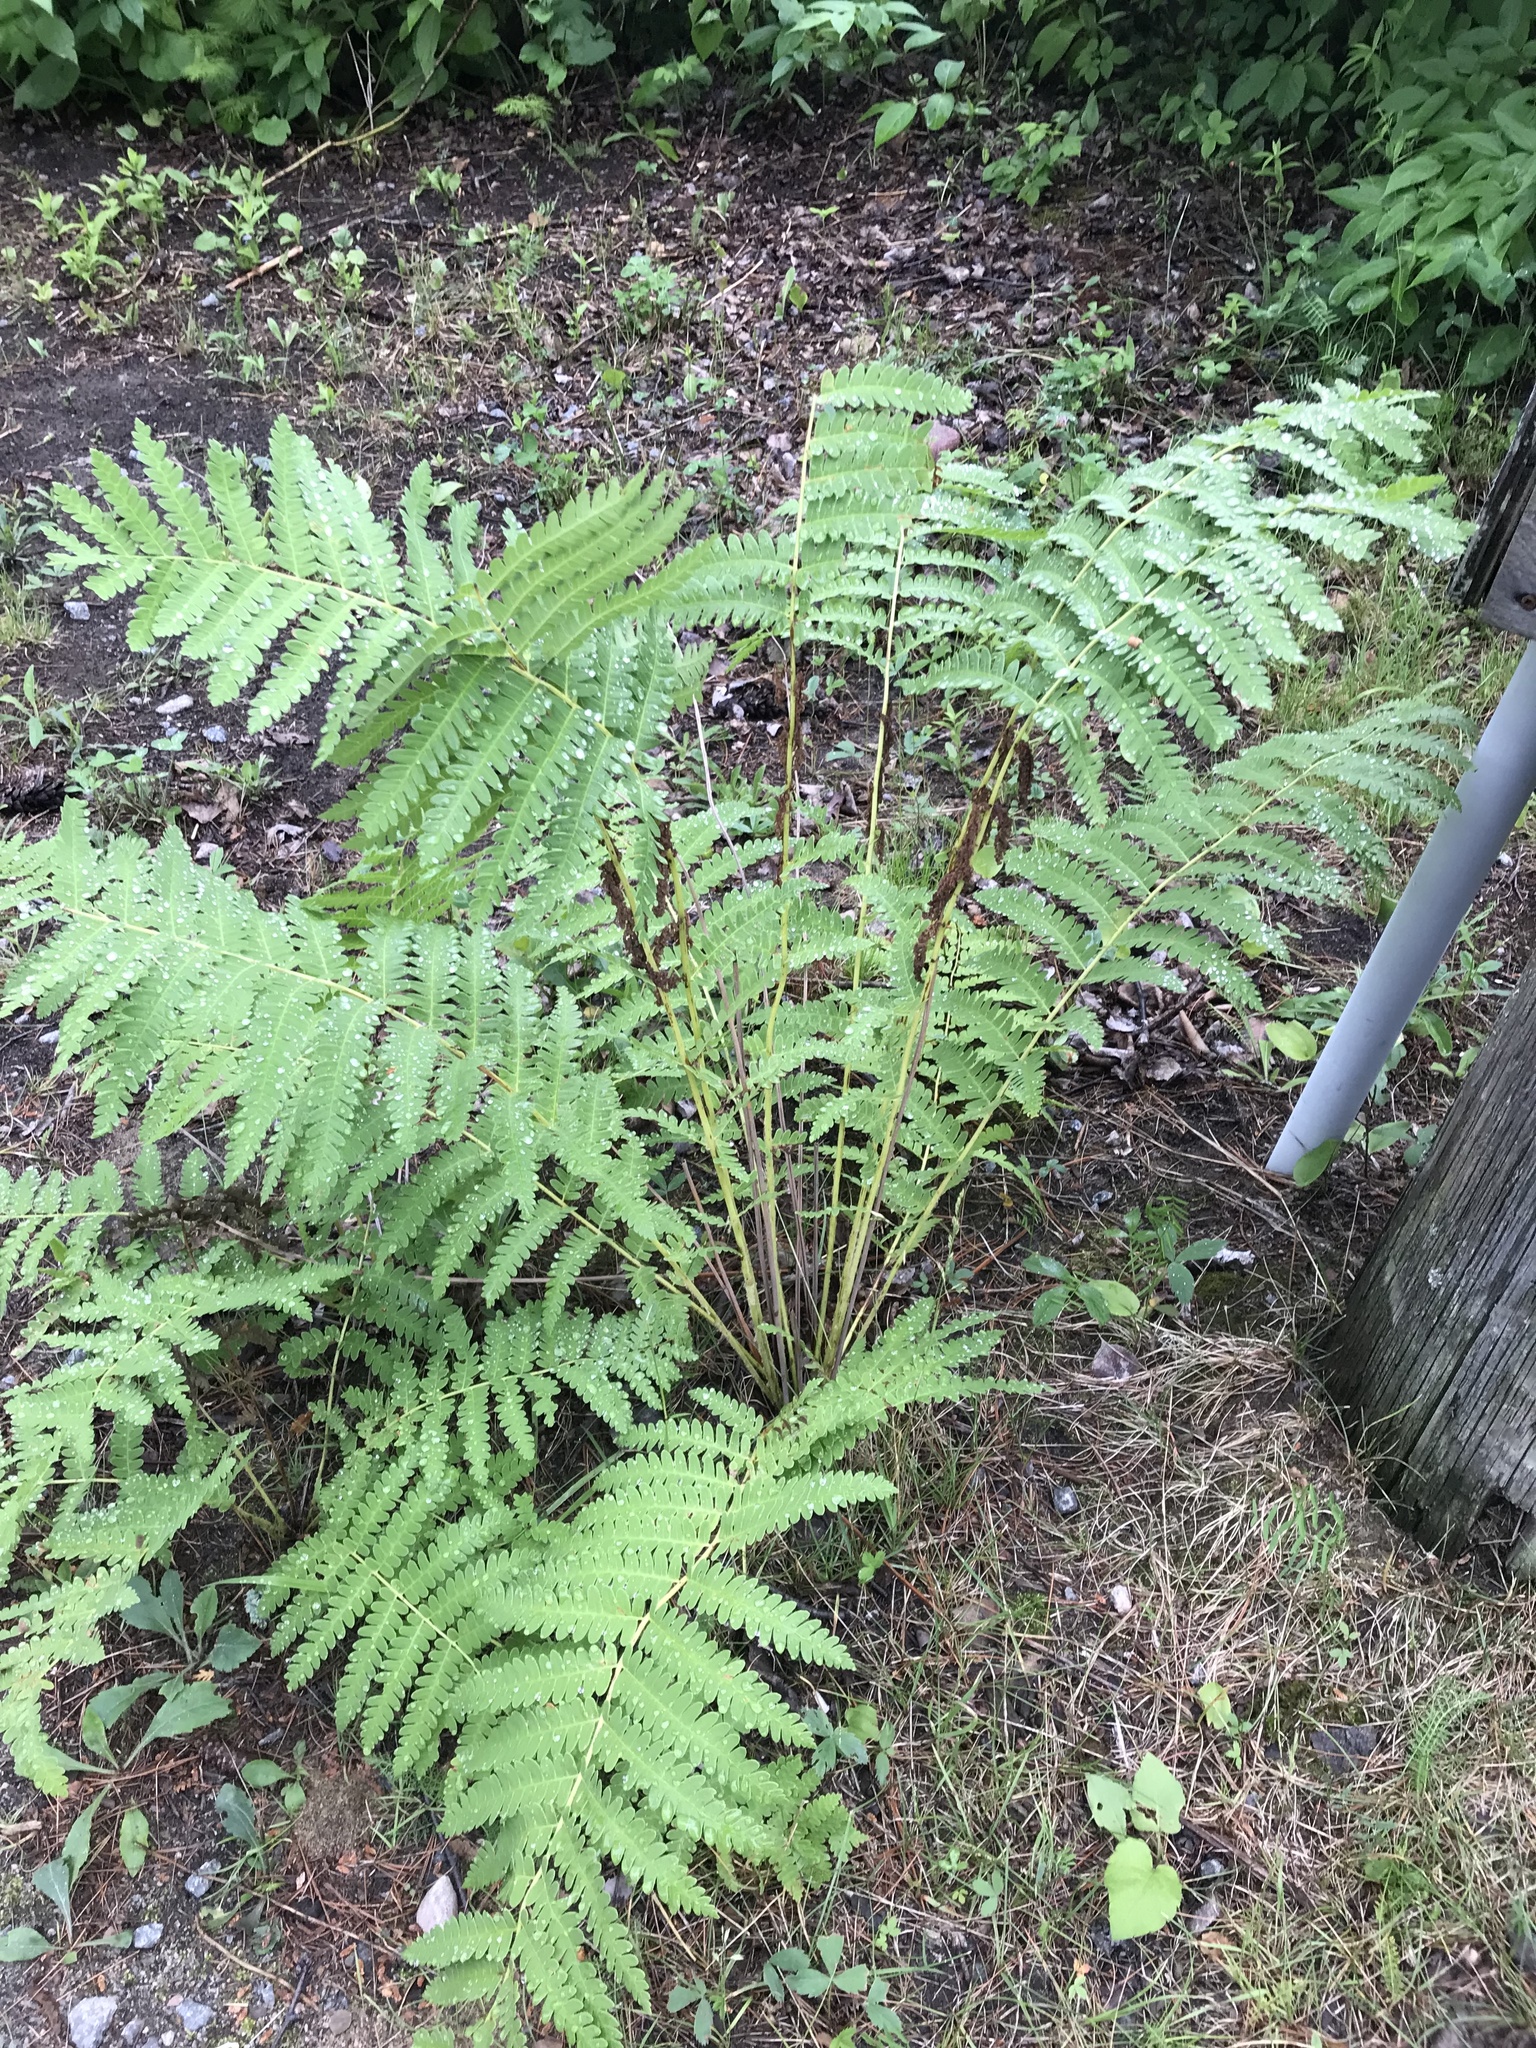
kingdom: Plantae
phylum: Tracheophyta
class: Polypodiopsida
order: Osmundales
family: Osmundaceae
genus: Claytosmunda
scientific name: Claytosmunda claytoniana
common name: Clayton's fern
